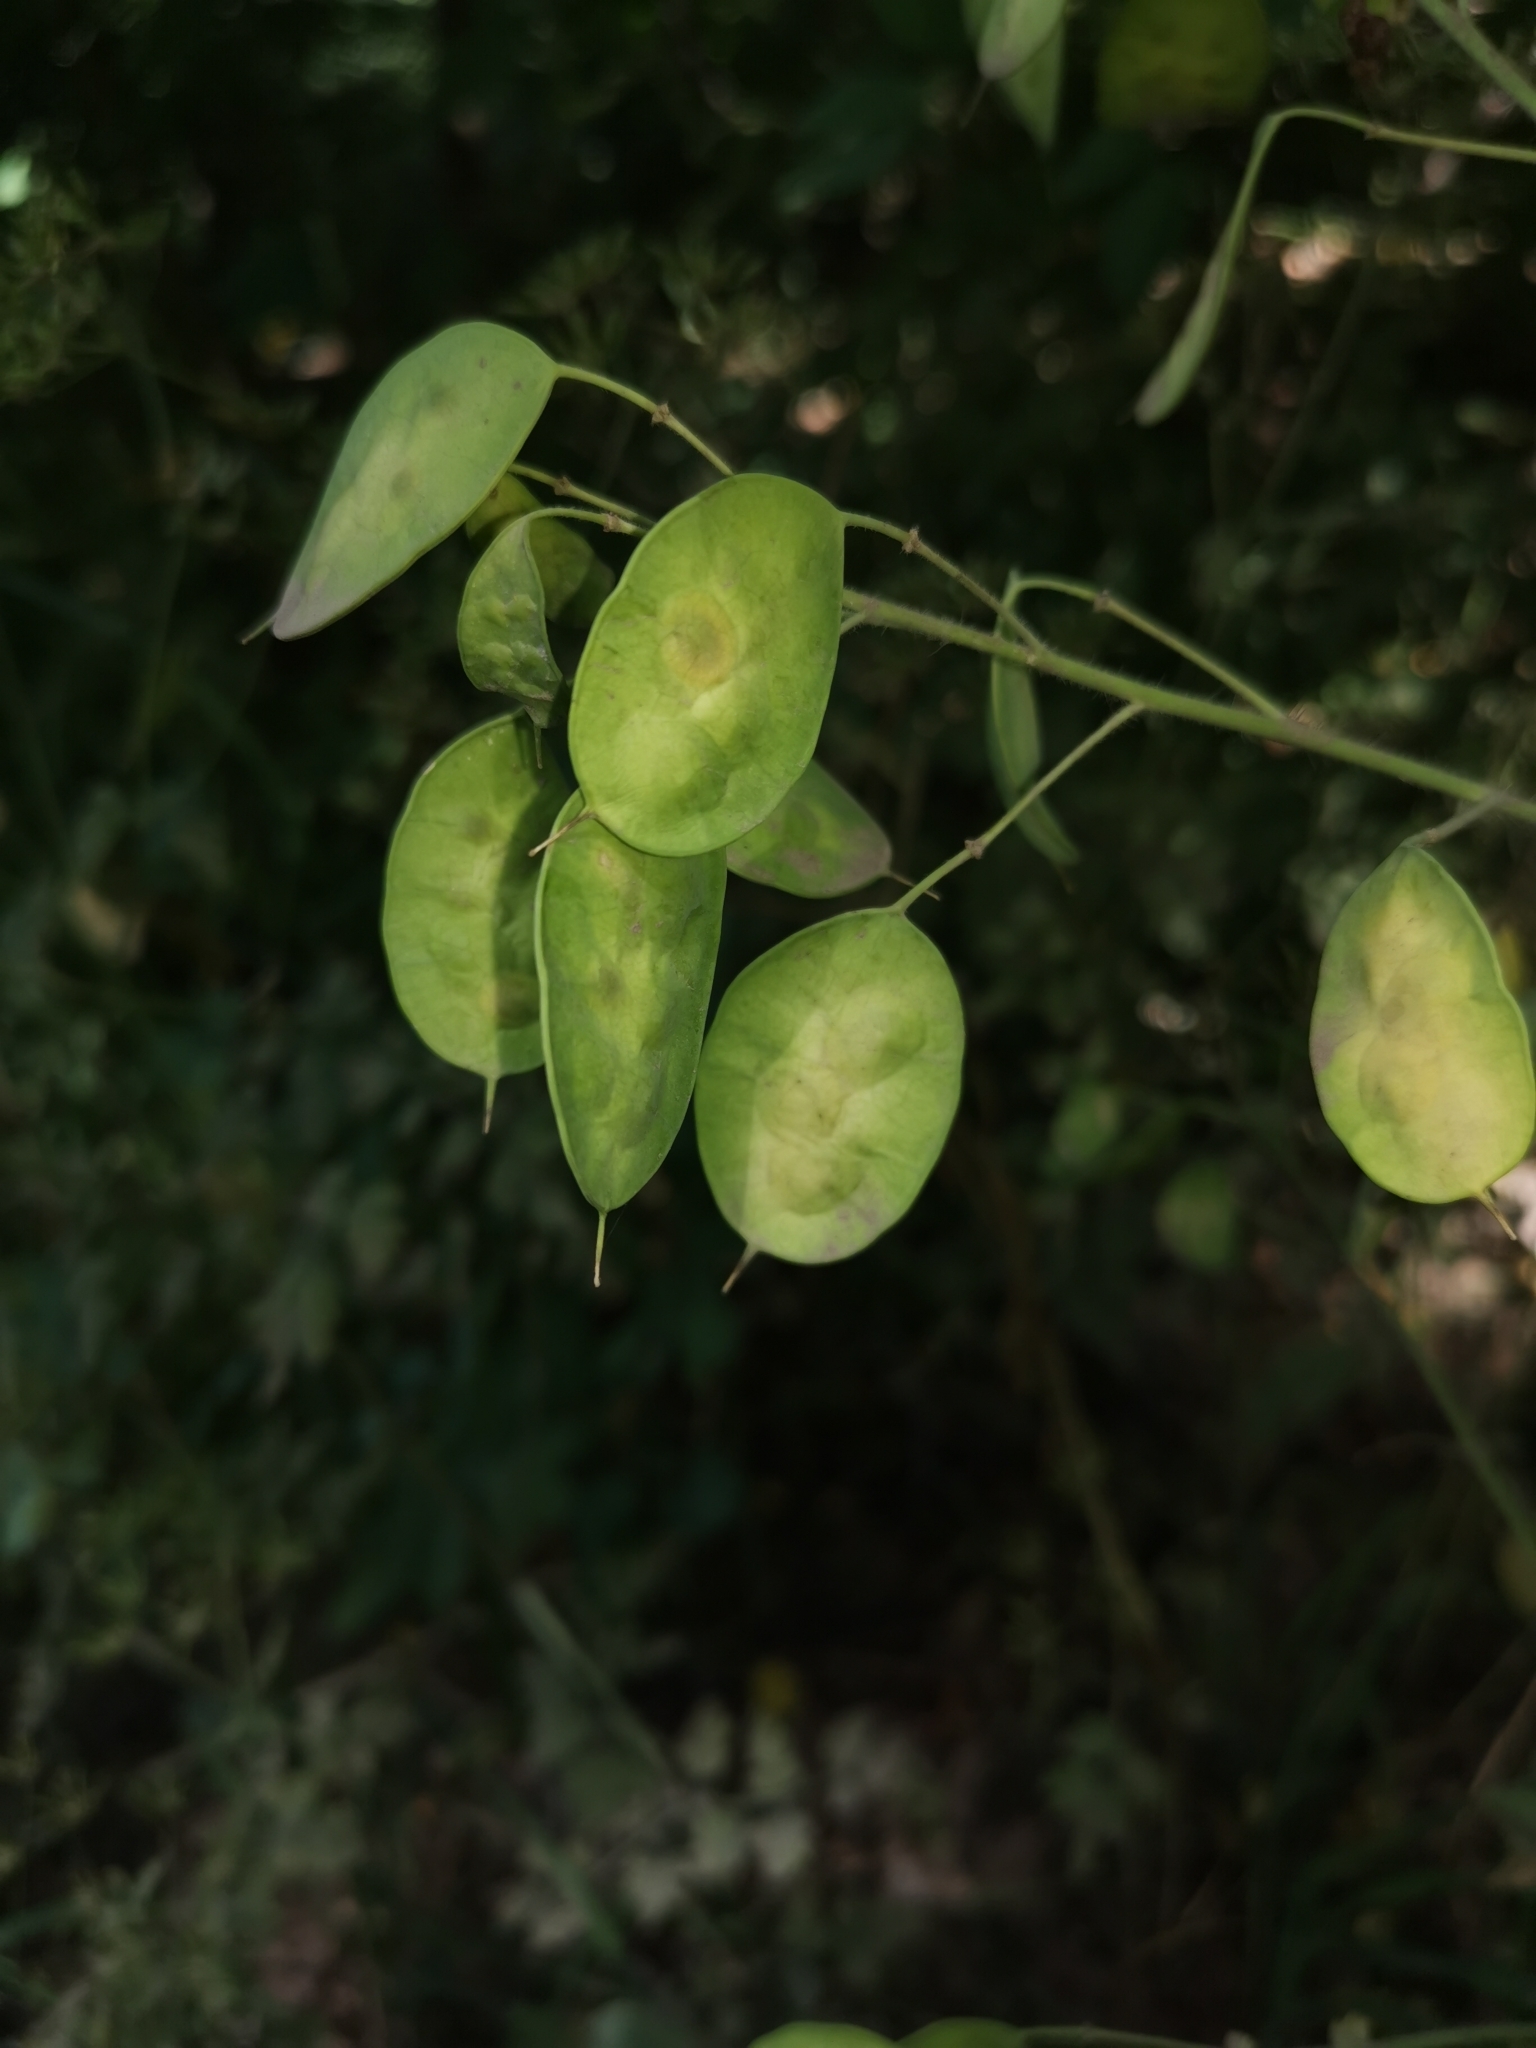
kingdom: Plantae
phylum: Tracheophyta
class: Magnoliopsida
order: Brassicales
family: Brassicaceae
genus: Lunaria
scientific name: Lunaria annua
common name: Honesty
